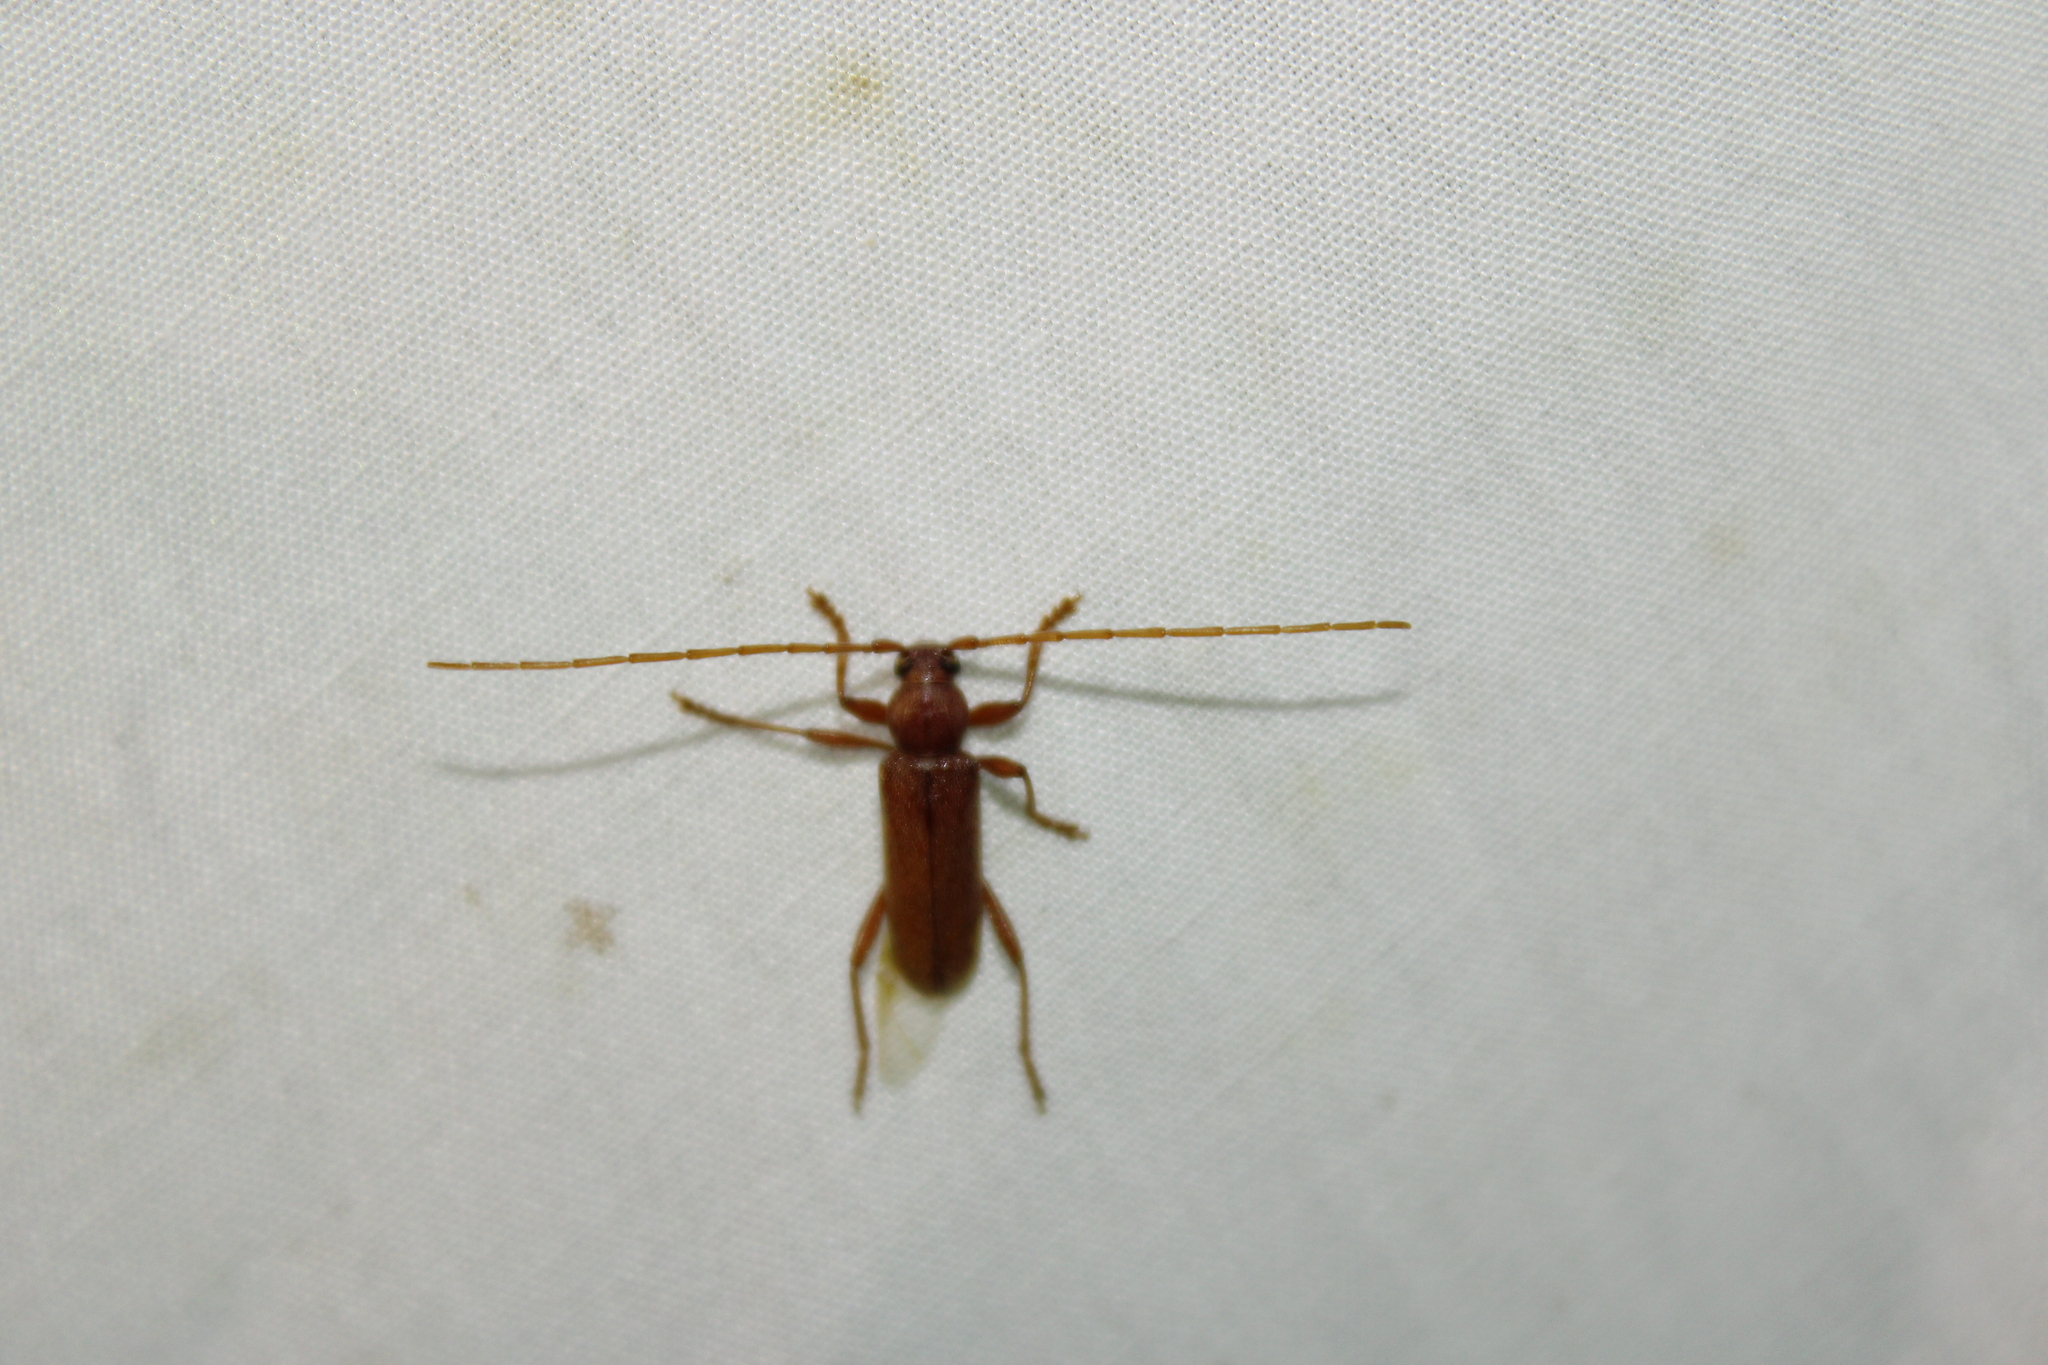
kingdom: Animalia
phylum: Arthropoda
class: Insecta
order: Coleoptera
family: Cerambycidae
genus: Hesperophanes
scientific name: Hesperophanes pubescens
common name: Longhorned wood-boring beetle
